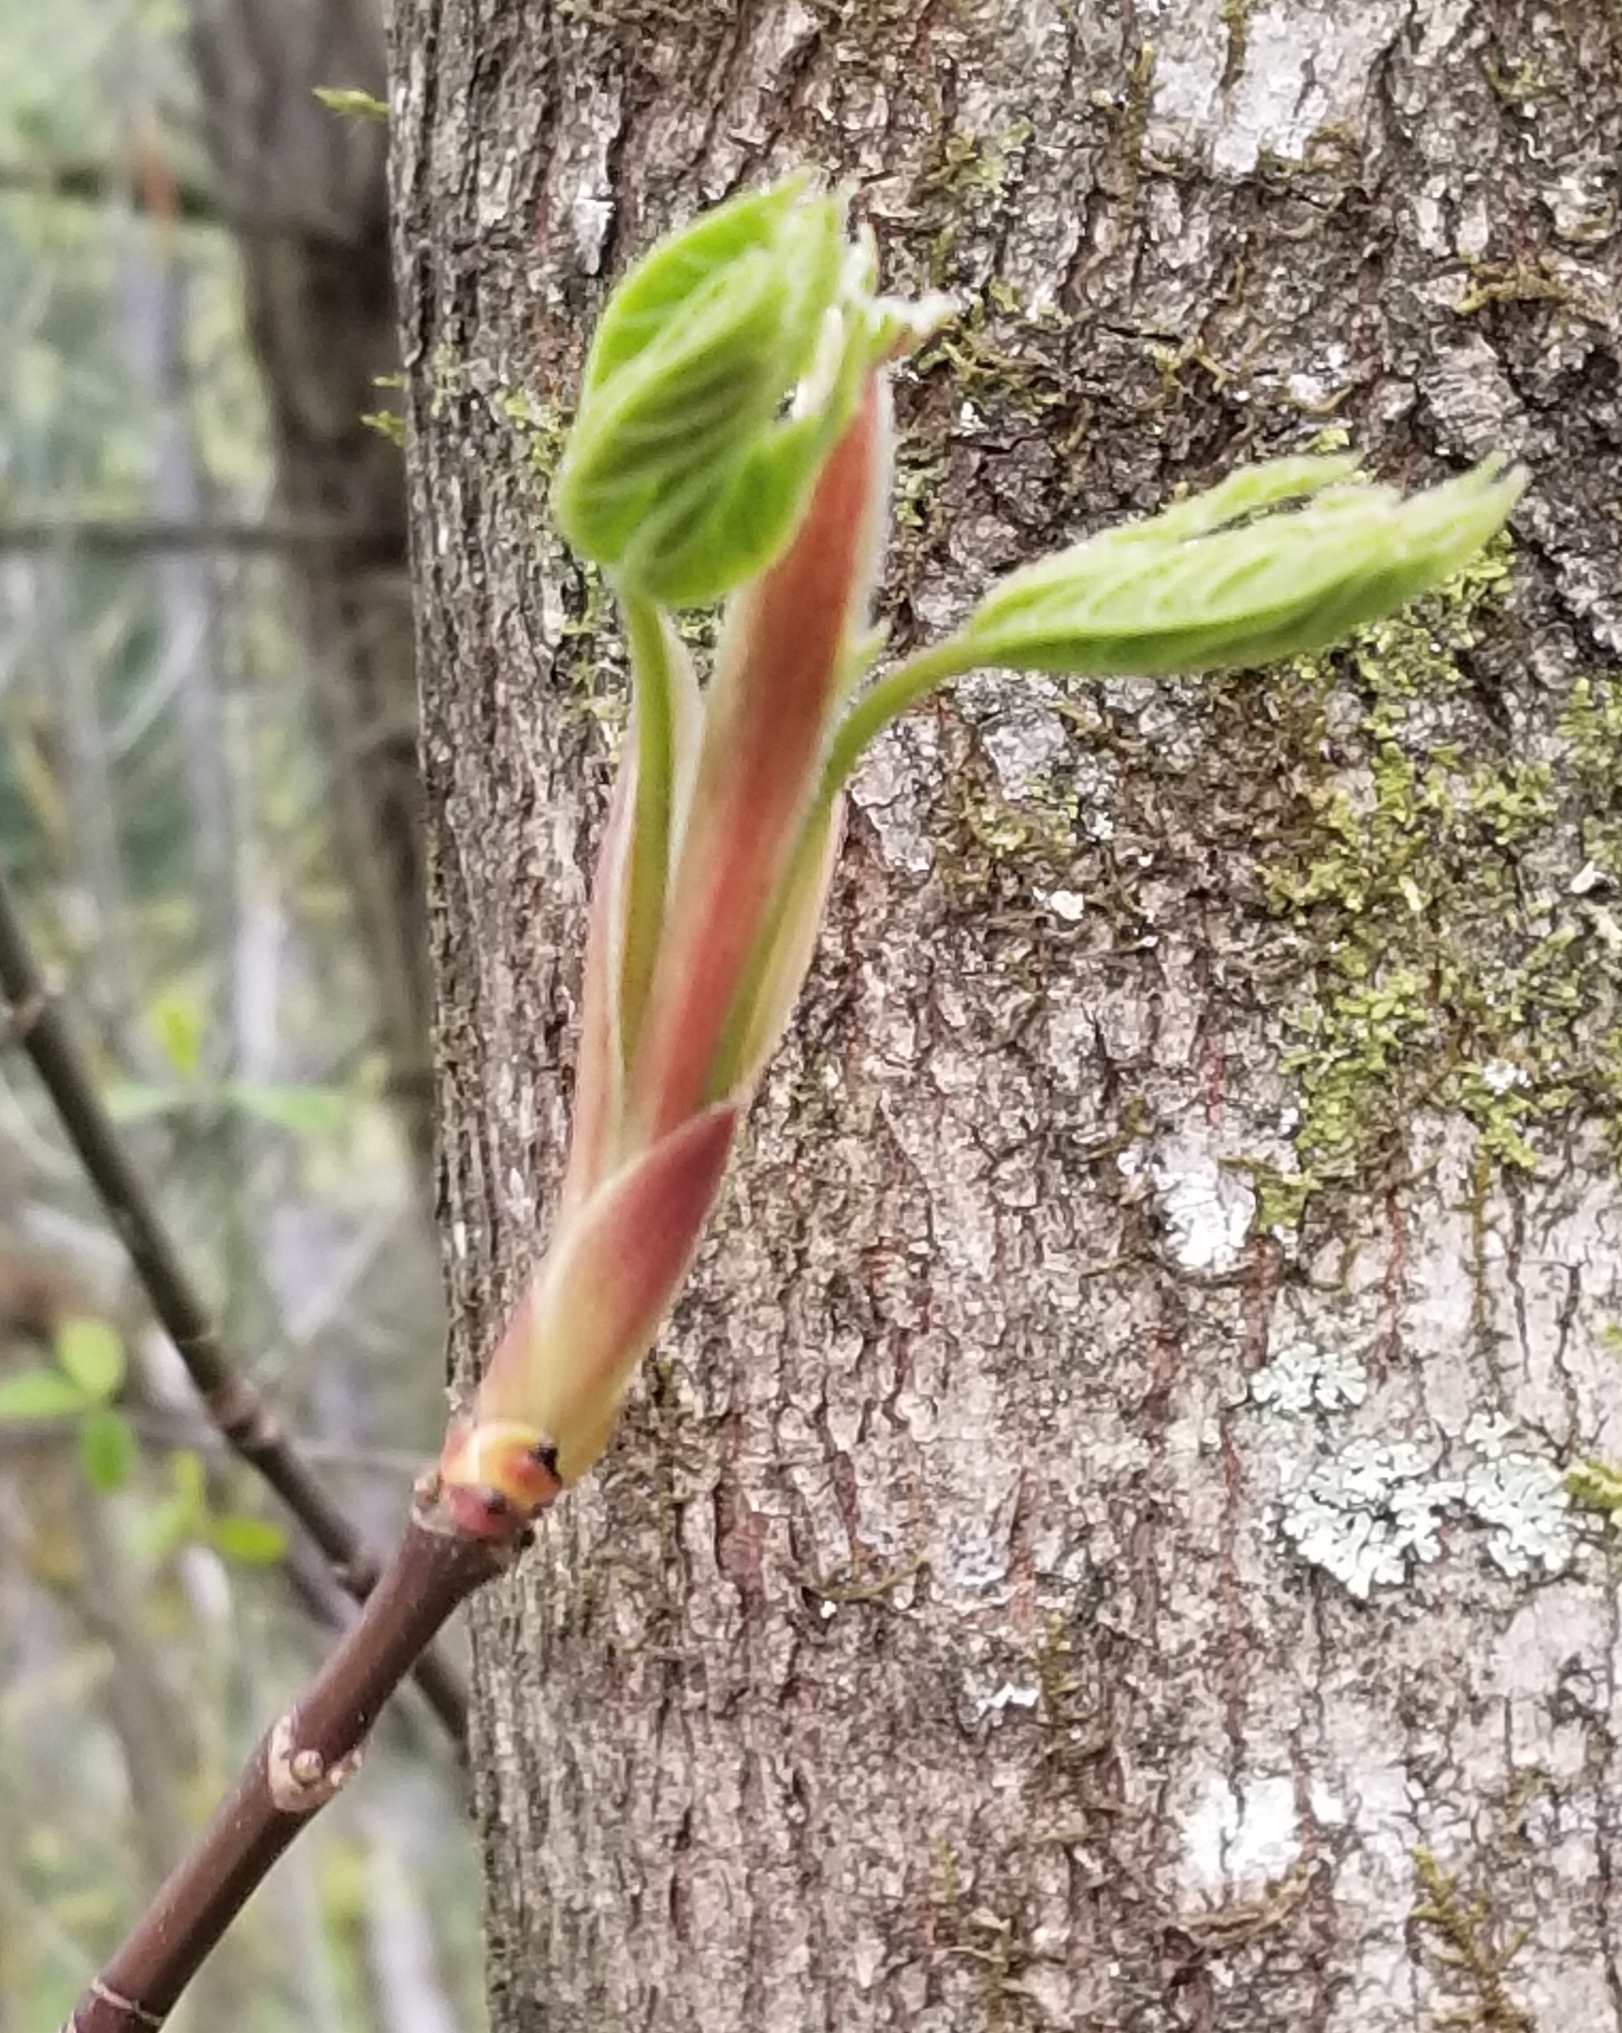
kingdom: Plantae
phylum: Tracheophyta
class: Magnoliopsida
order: Sapindales
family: Sapindaceae
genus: Acer
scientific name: Acer macrophyllum
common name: Oregon maple
